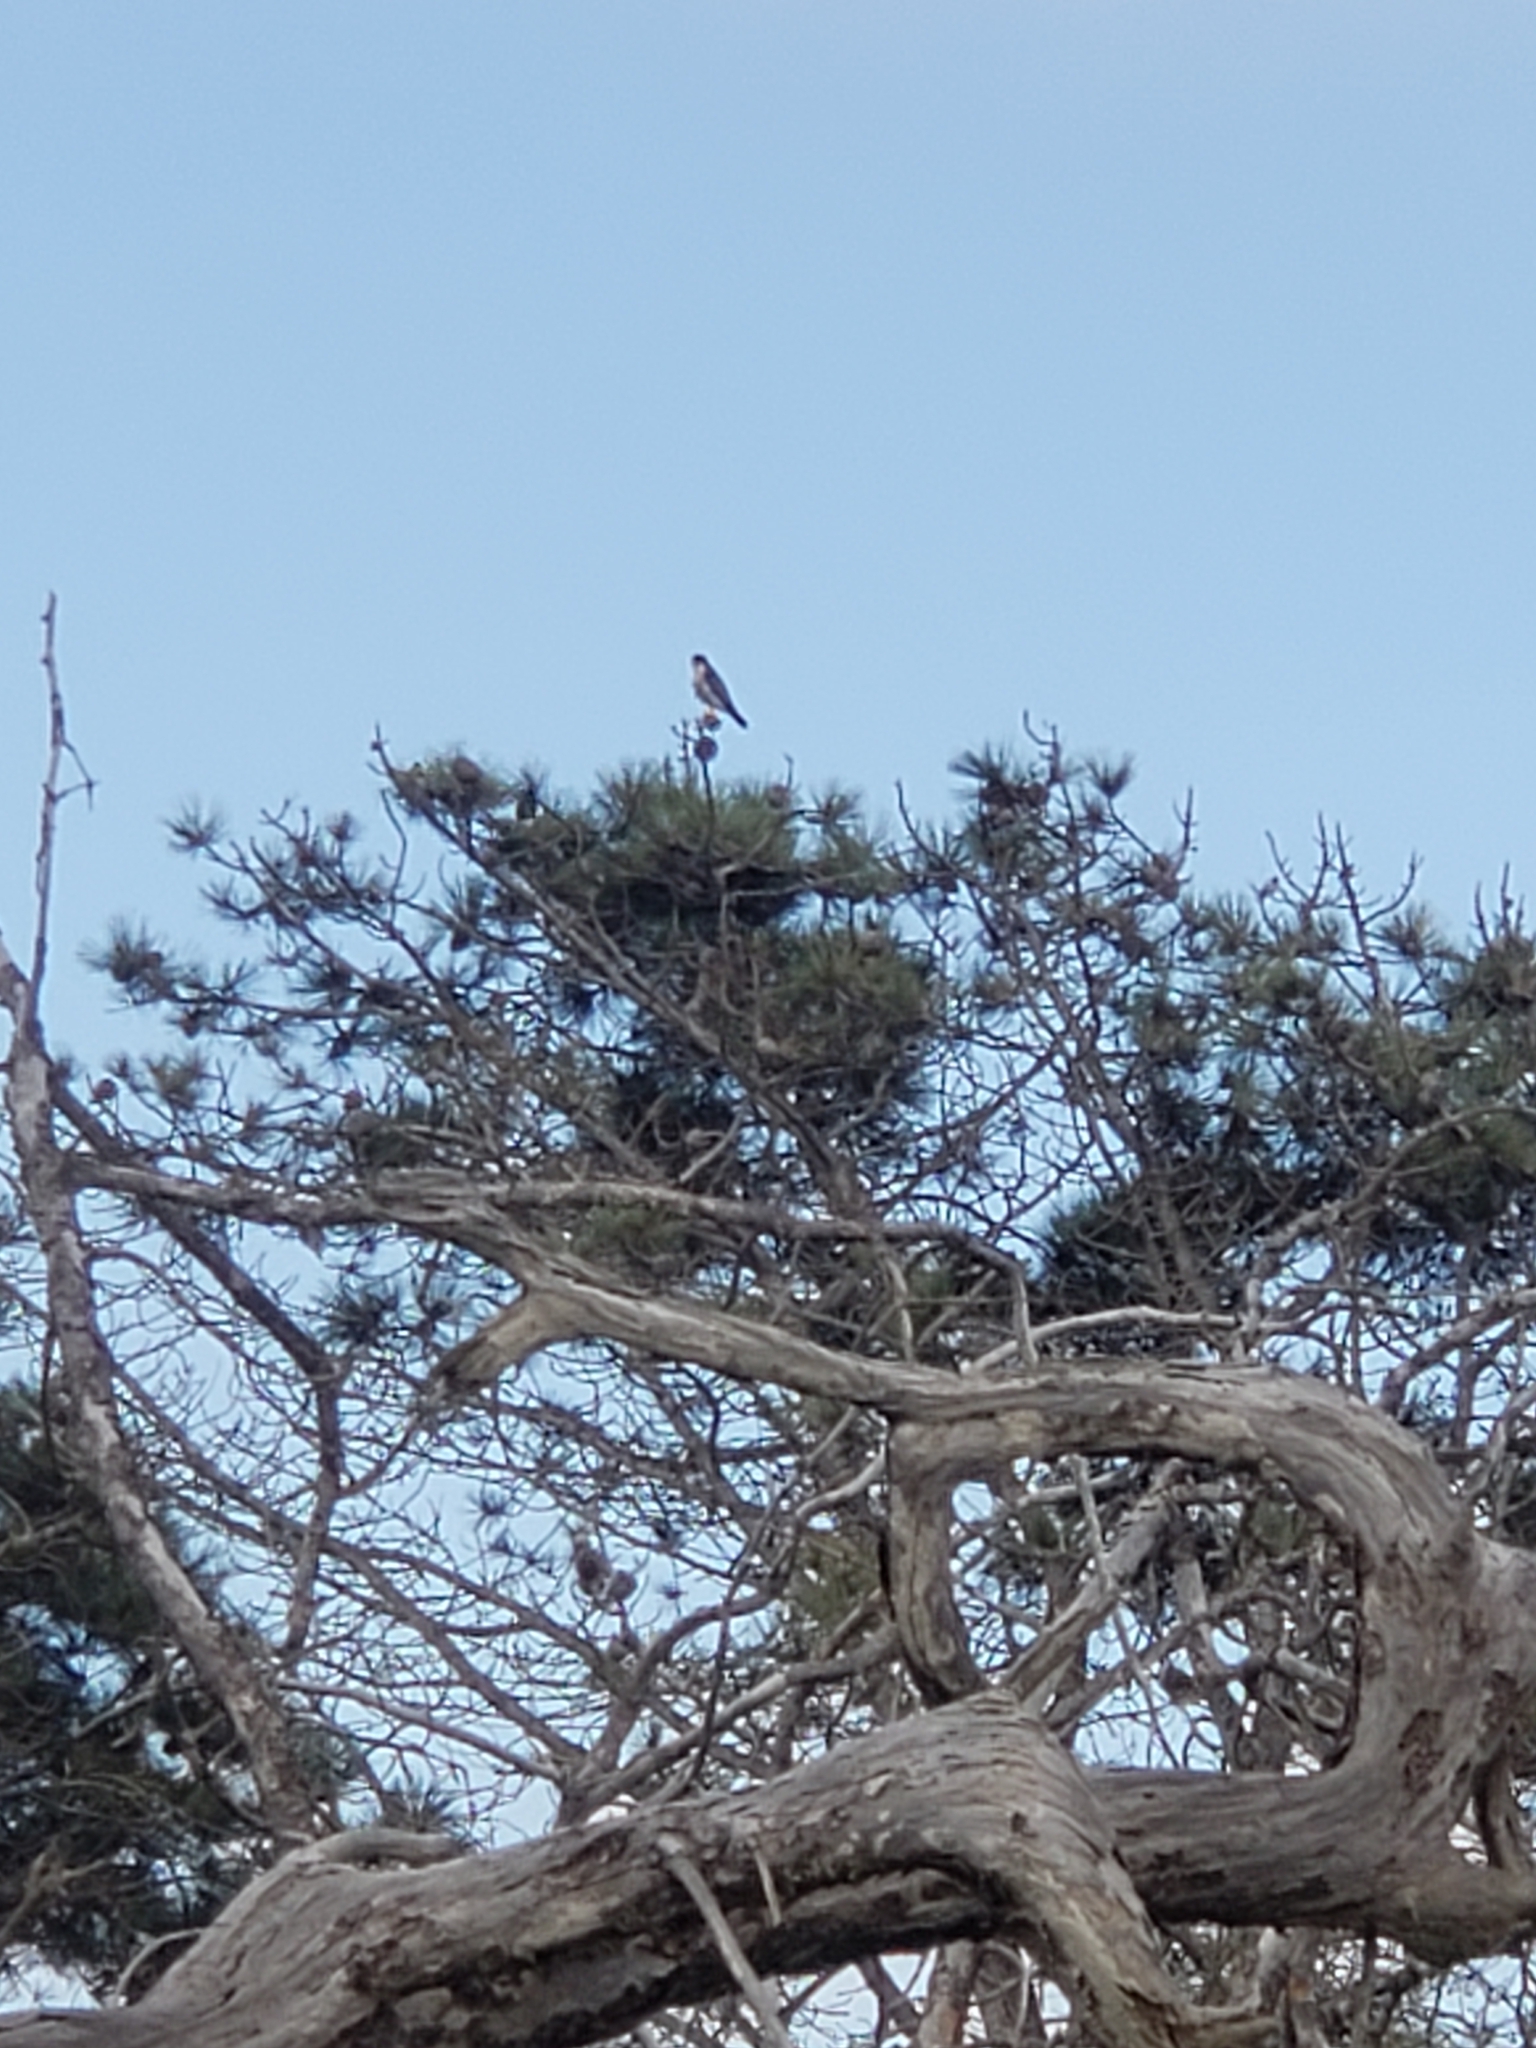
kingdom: Animalia
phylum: Chordata
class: Aves
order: Falconiformes
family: Falconidae
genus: Falco
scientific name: Falco peregrinus
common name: Peregrine falcon
